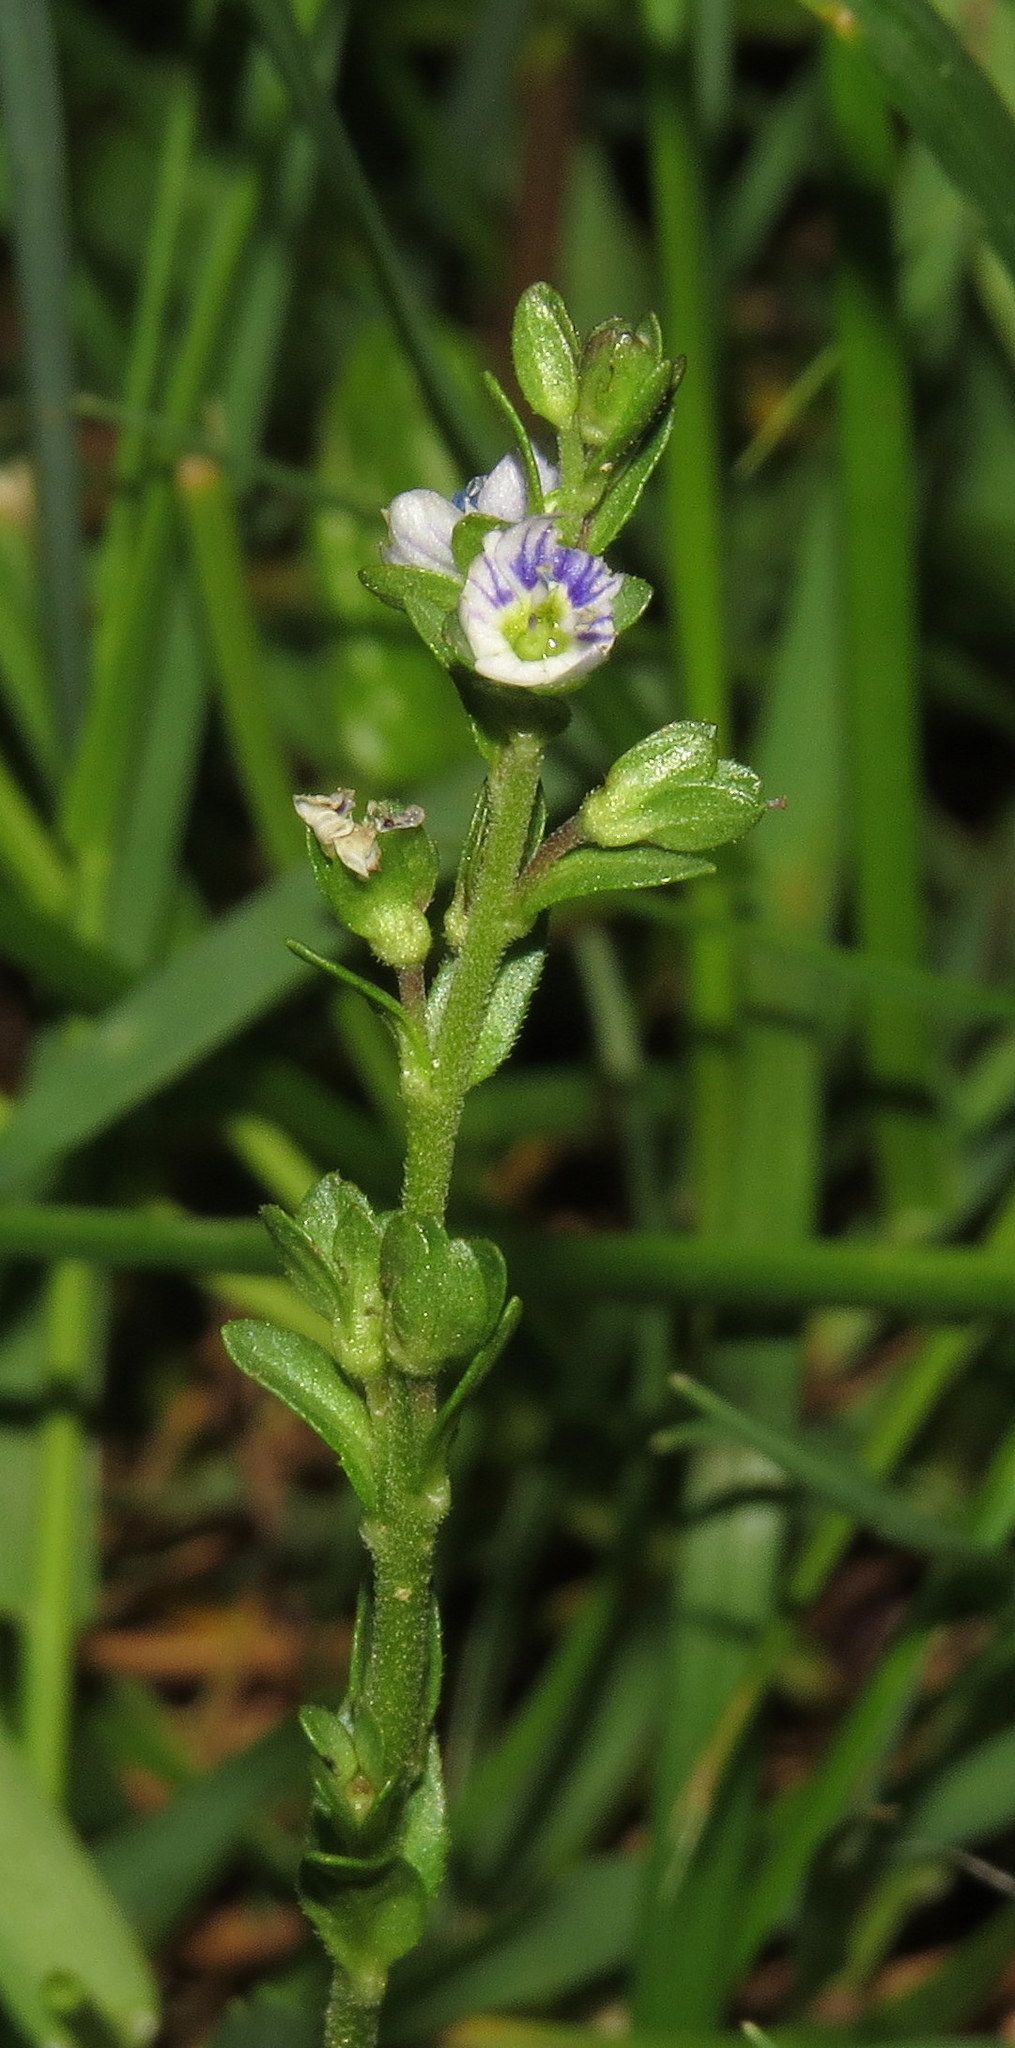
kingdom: Plantae
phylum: Tracheophyta
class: Magnoliopsida
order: Lamiales
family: Plantaginaceae
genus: Veronica
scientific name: Veronica serpyllifolia
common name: Thyme-leaved speedwell
